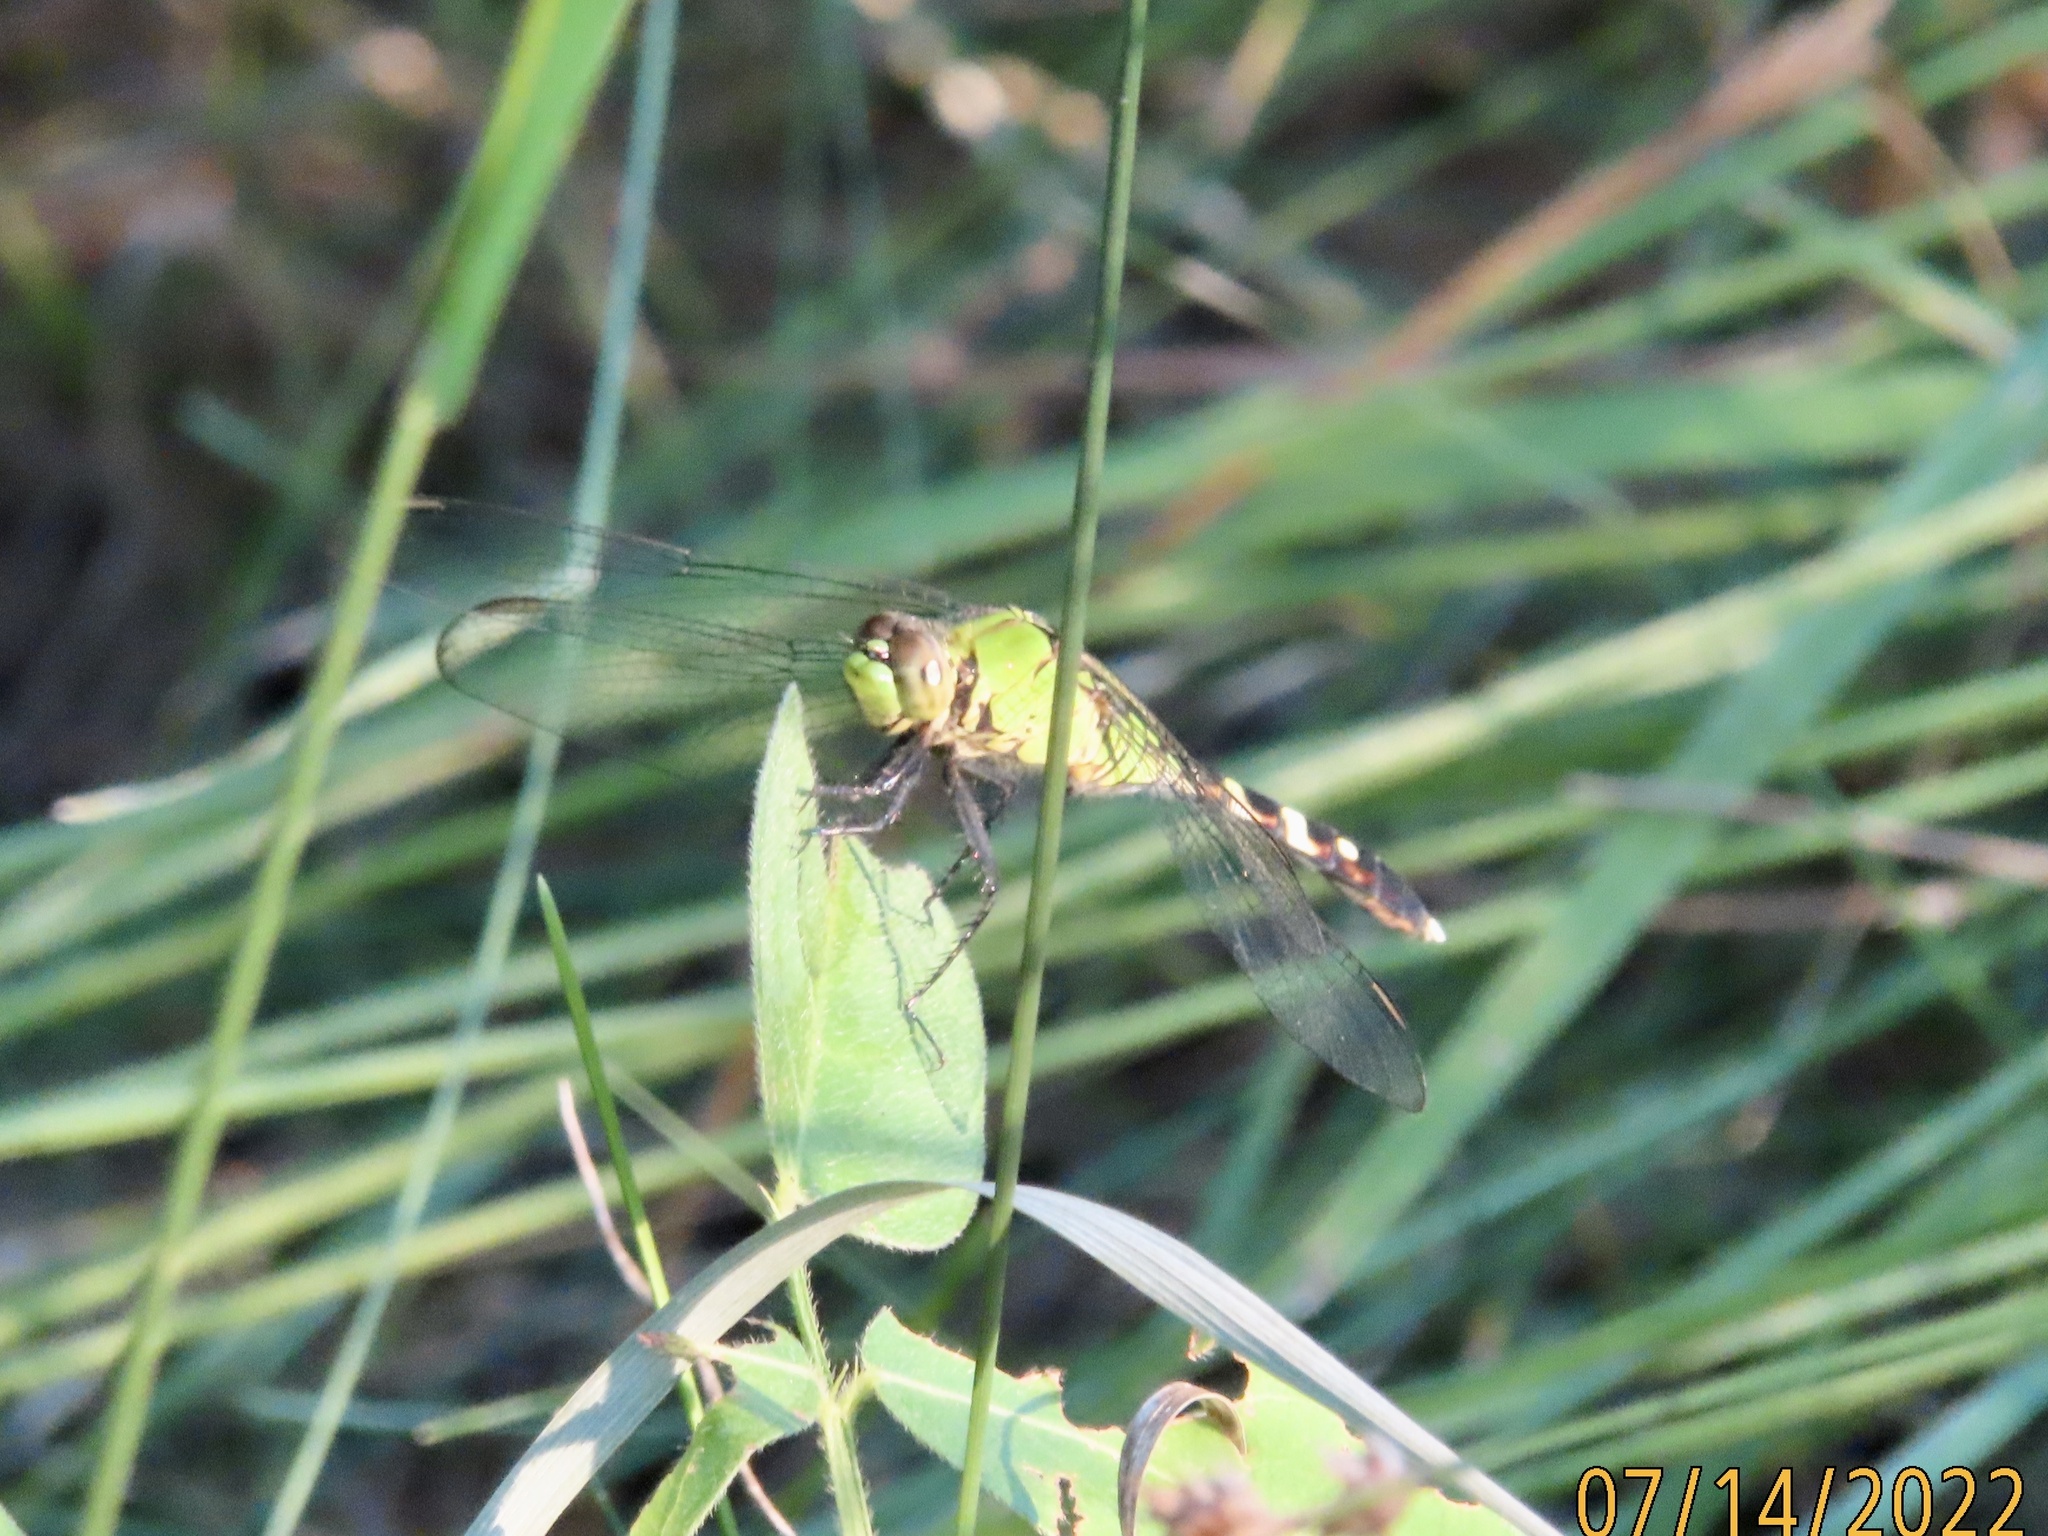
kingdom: Animalia
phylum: Arthropoda
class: Insecta
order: Odonata
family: Libellulidae
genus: Erythemis
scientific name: Erythemis simplicicollis
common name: Eastern pondhawk
